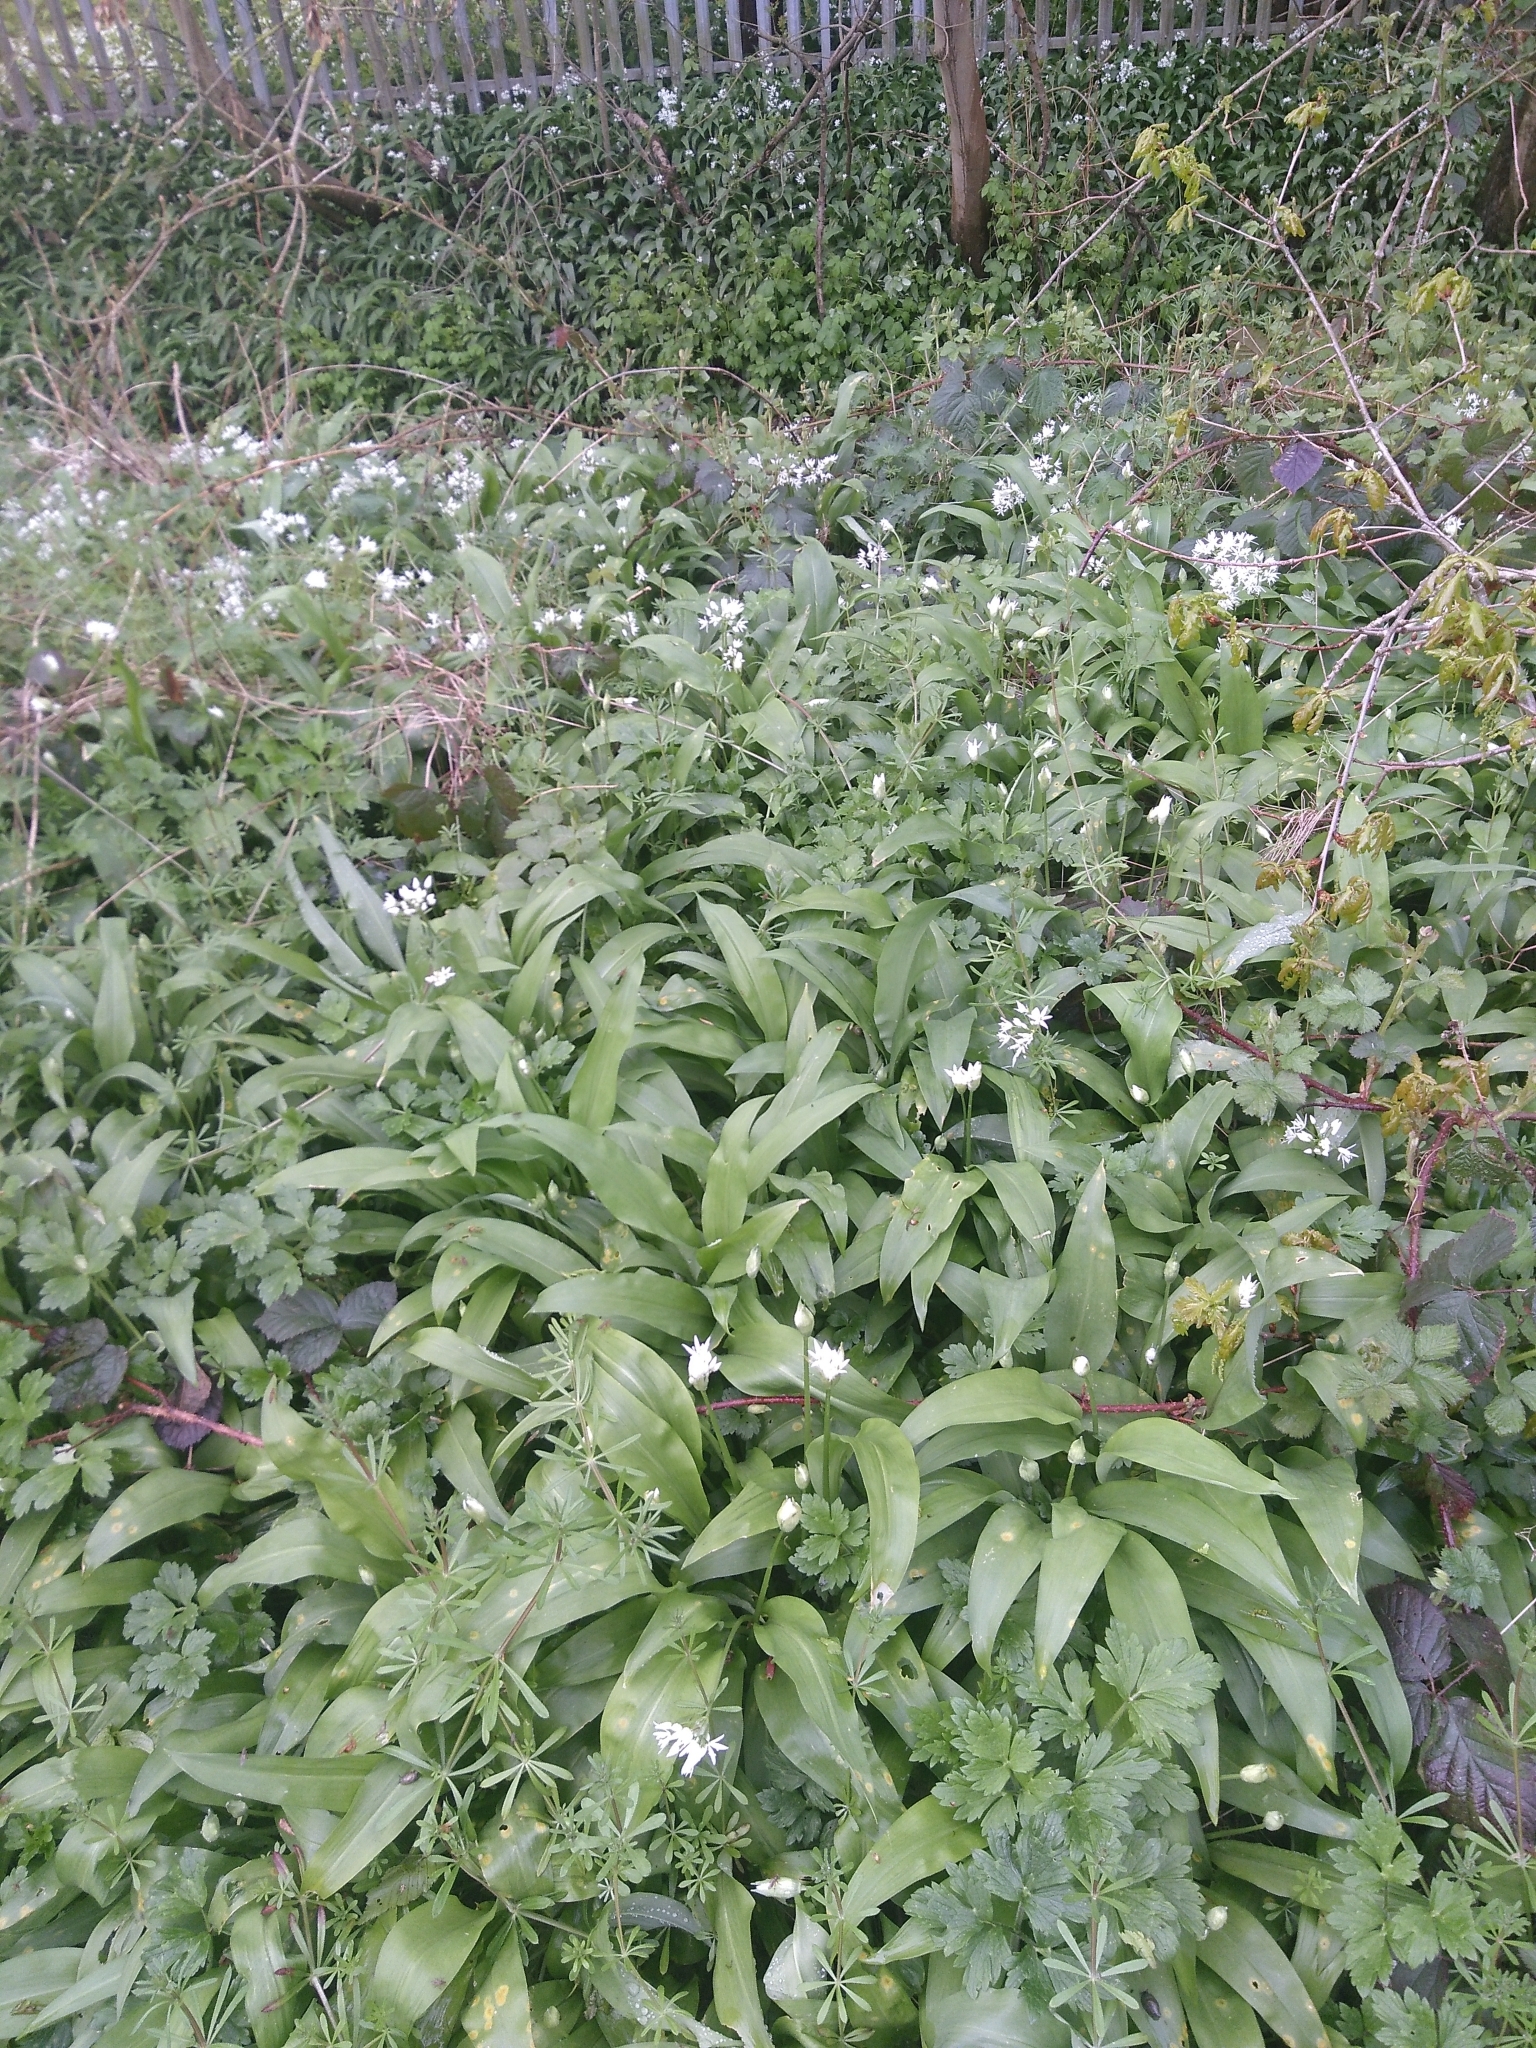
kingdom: Plantae
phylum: Tracheophyta
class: Liliopsida
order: Asparagales
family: Amaryllidaceae
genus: Allium
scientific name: Allium ursinum
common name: Ramsons
